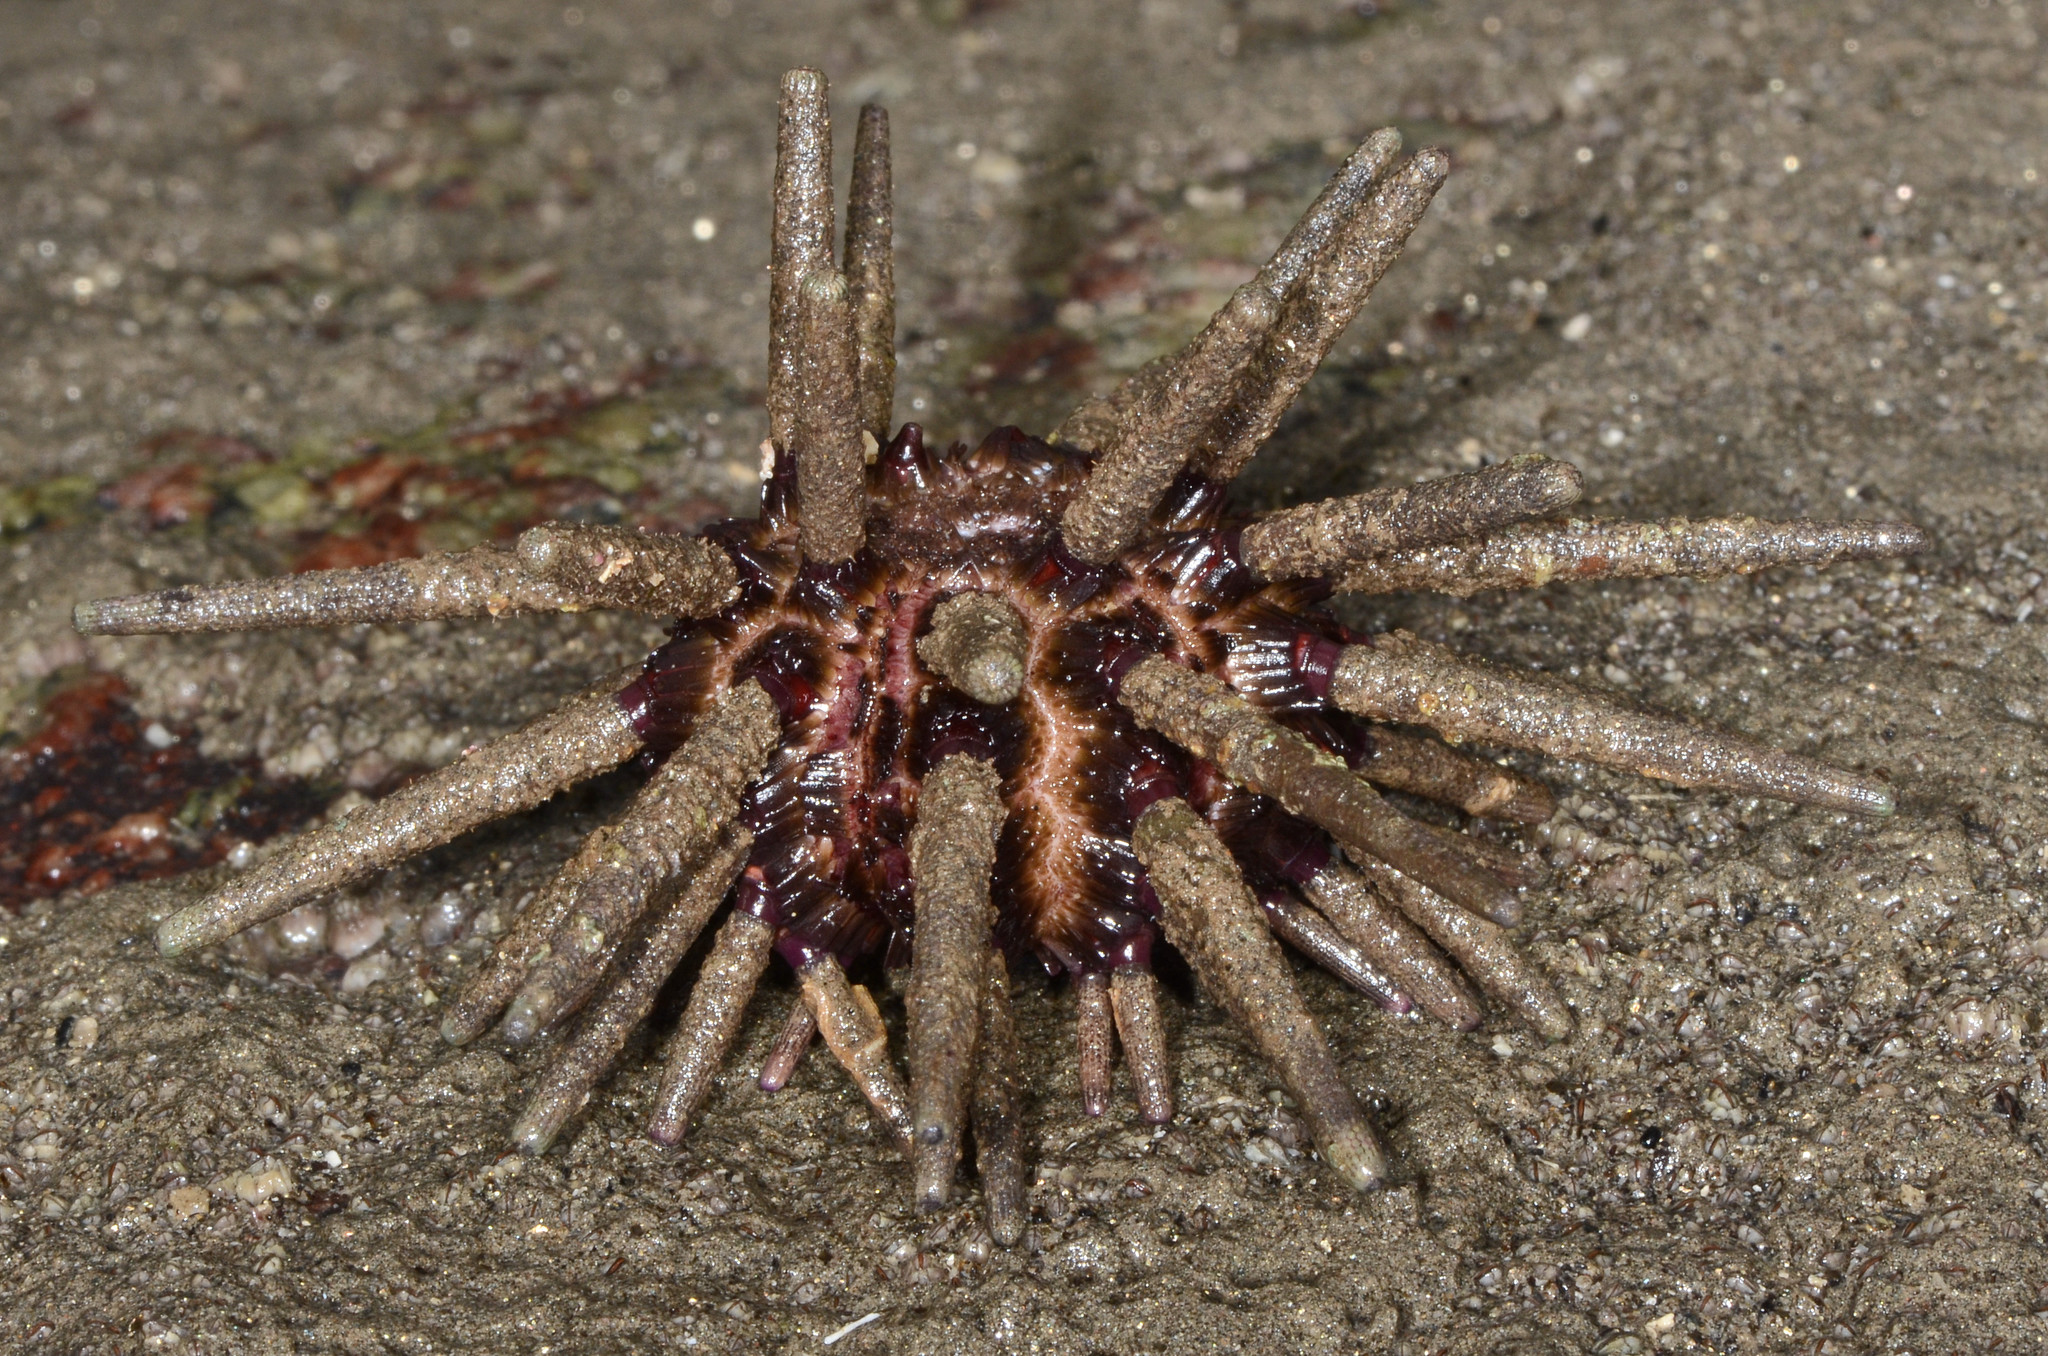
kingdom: Animalia
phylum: Echinodermata
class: Echinoidea
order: Cidaroida
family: Cidaridae
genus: Eucidaris
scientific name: Eucidaris thouarsii
